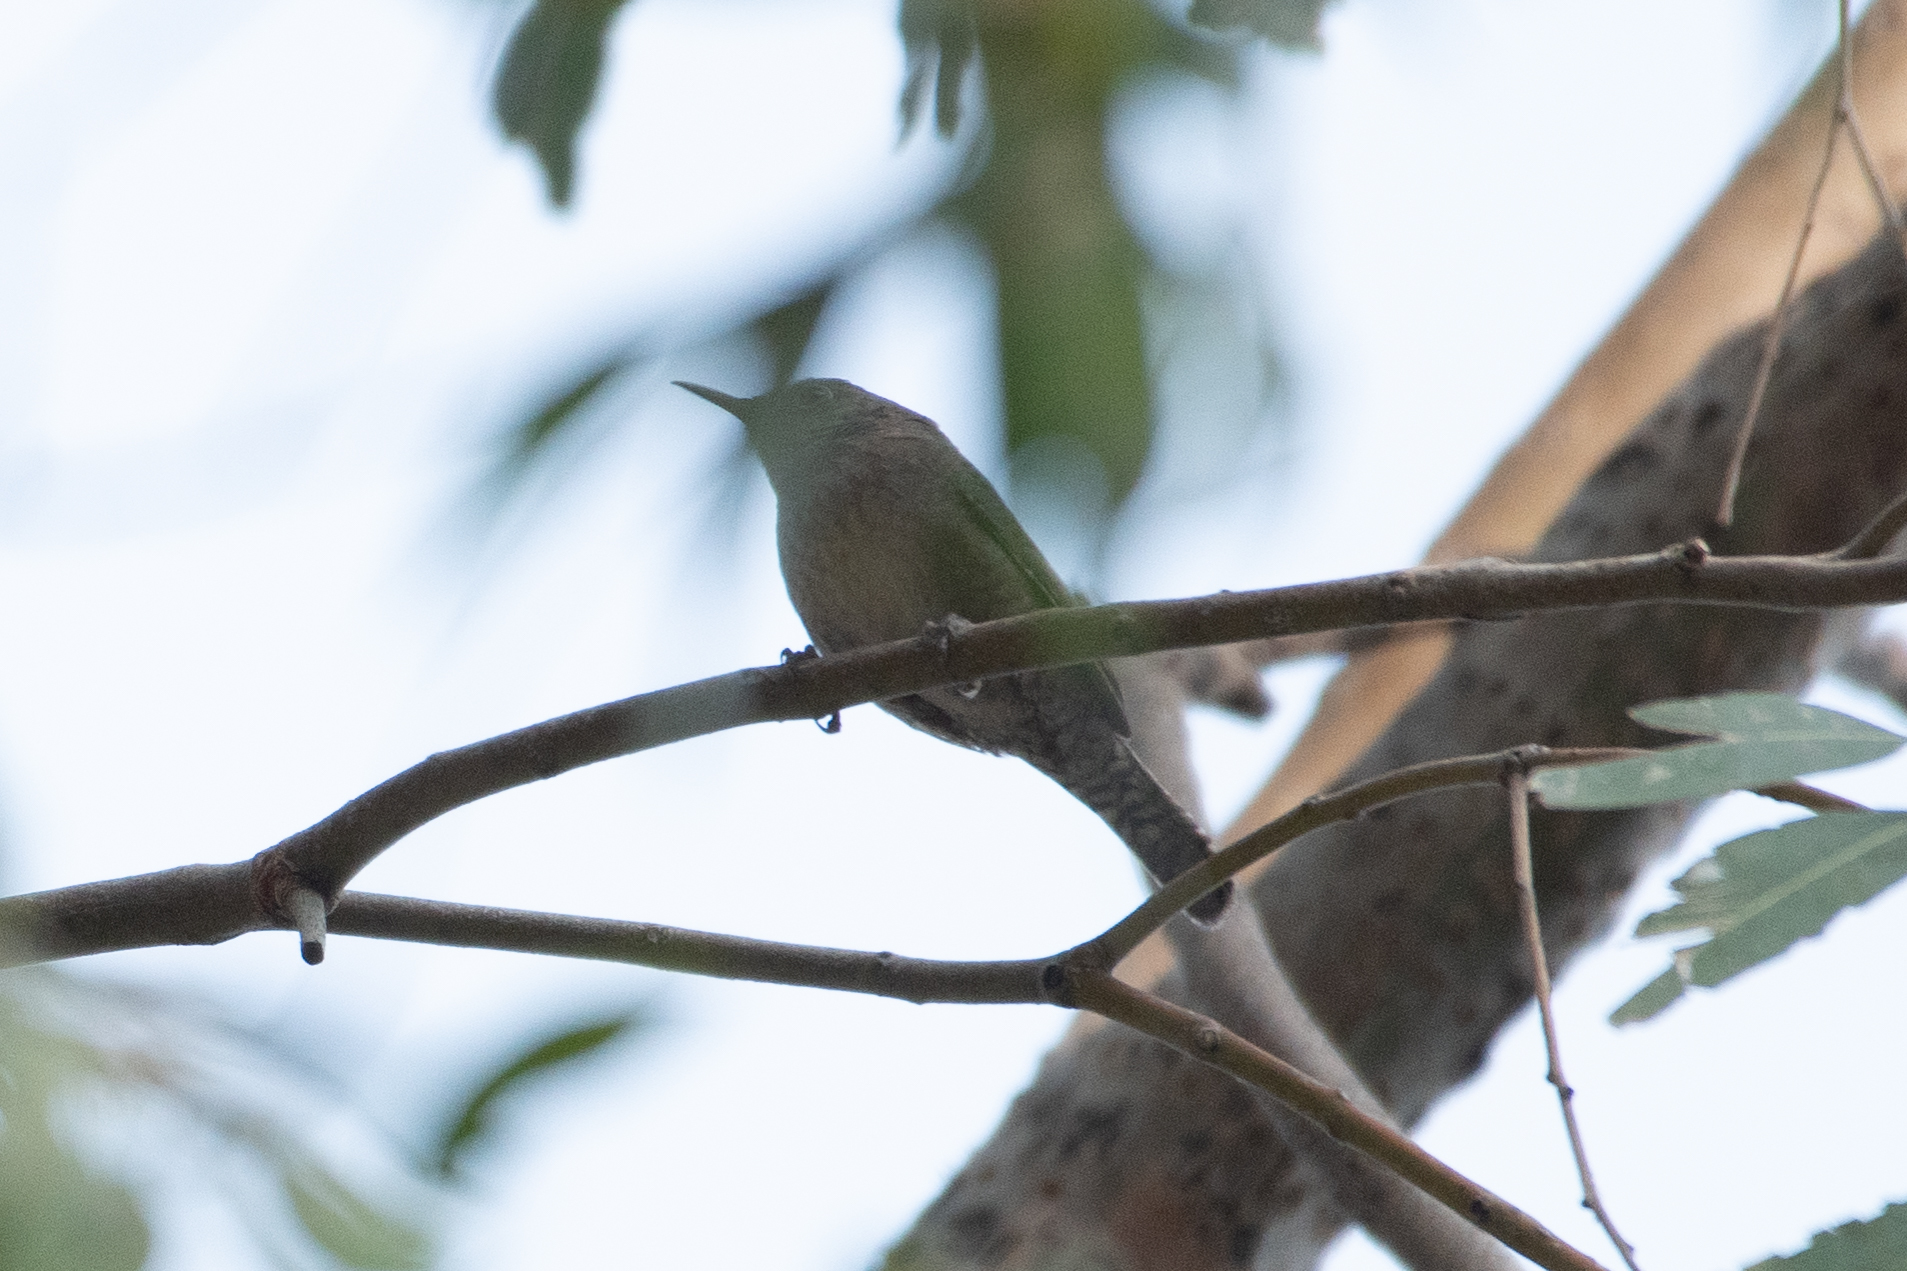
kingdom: Animalia
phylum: Chordata
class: Aves
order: Passeriformes
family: Troglodytidae
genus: Troglodytes
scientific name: Troglodytes aedon
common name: House wren
